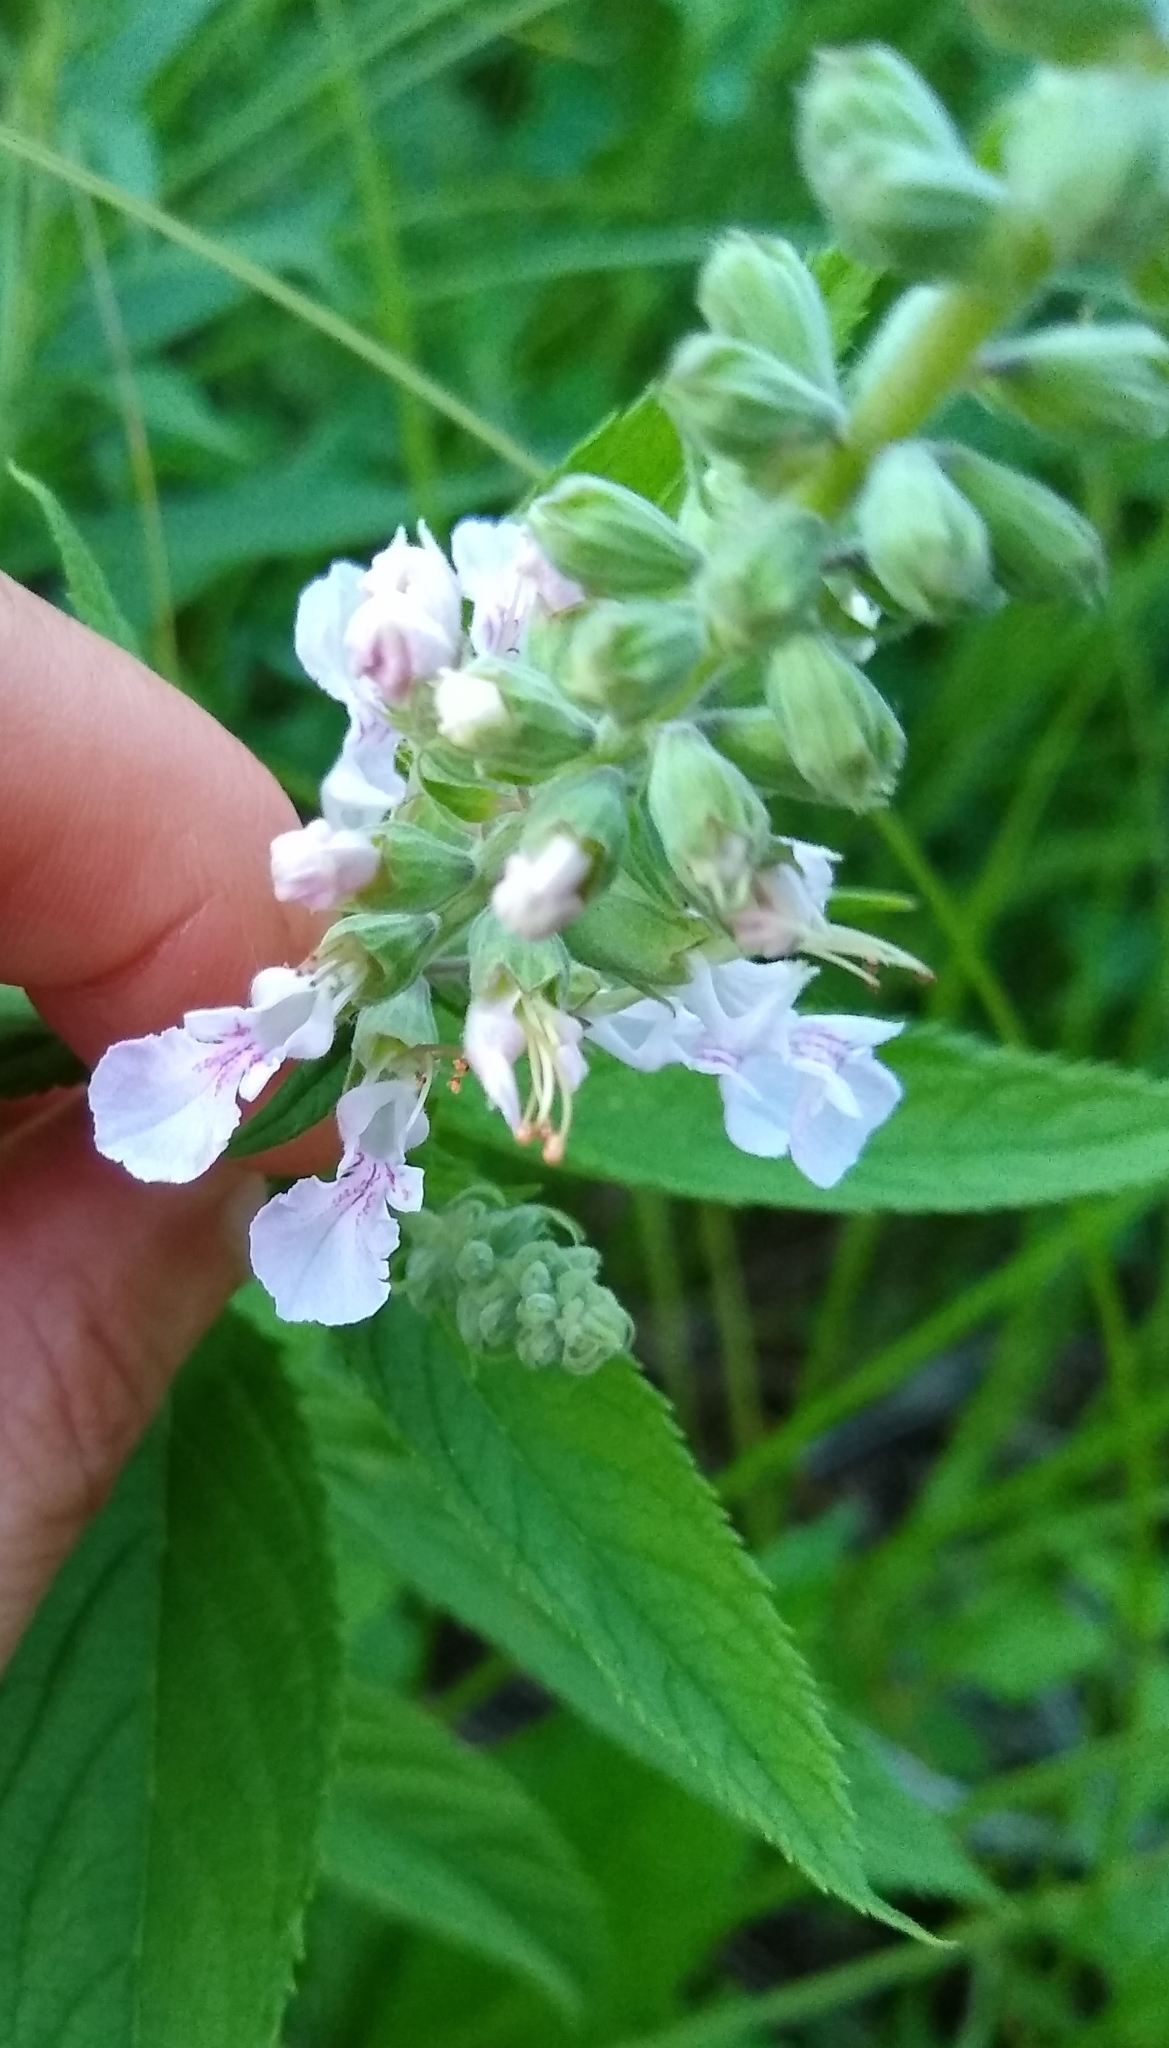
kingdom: Plantae
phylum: Tracheophyta
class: Magnoliopsida
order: Lamiales
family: Lamiaceae
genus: Teucrium
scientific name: Teucrium canadense
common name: American germander
